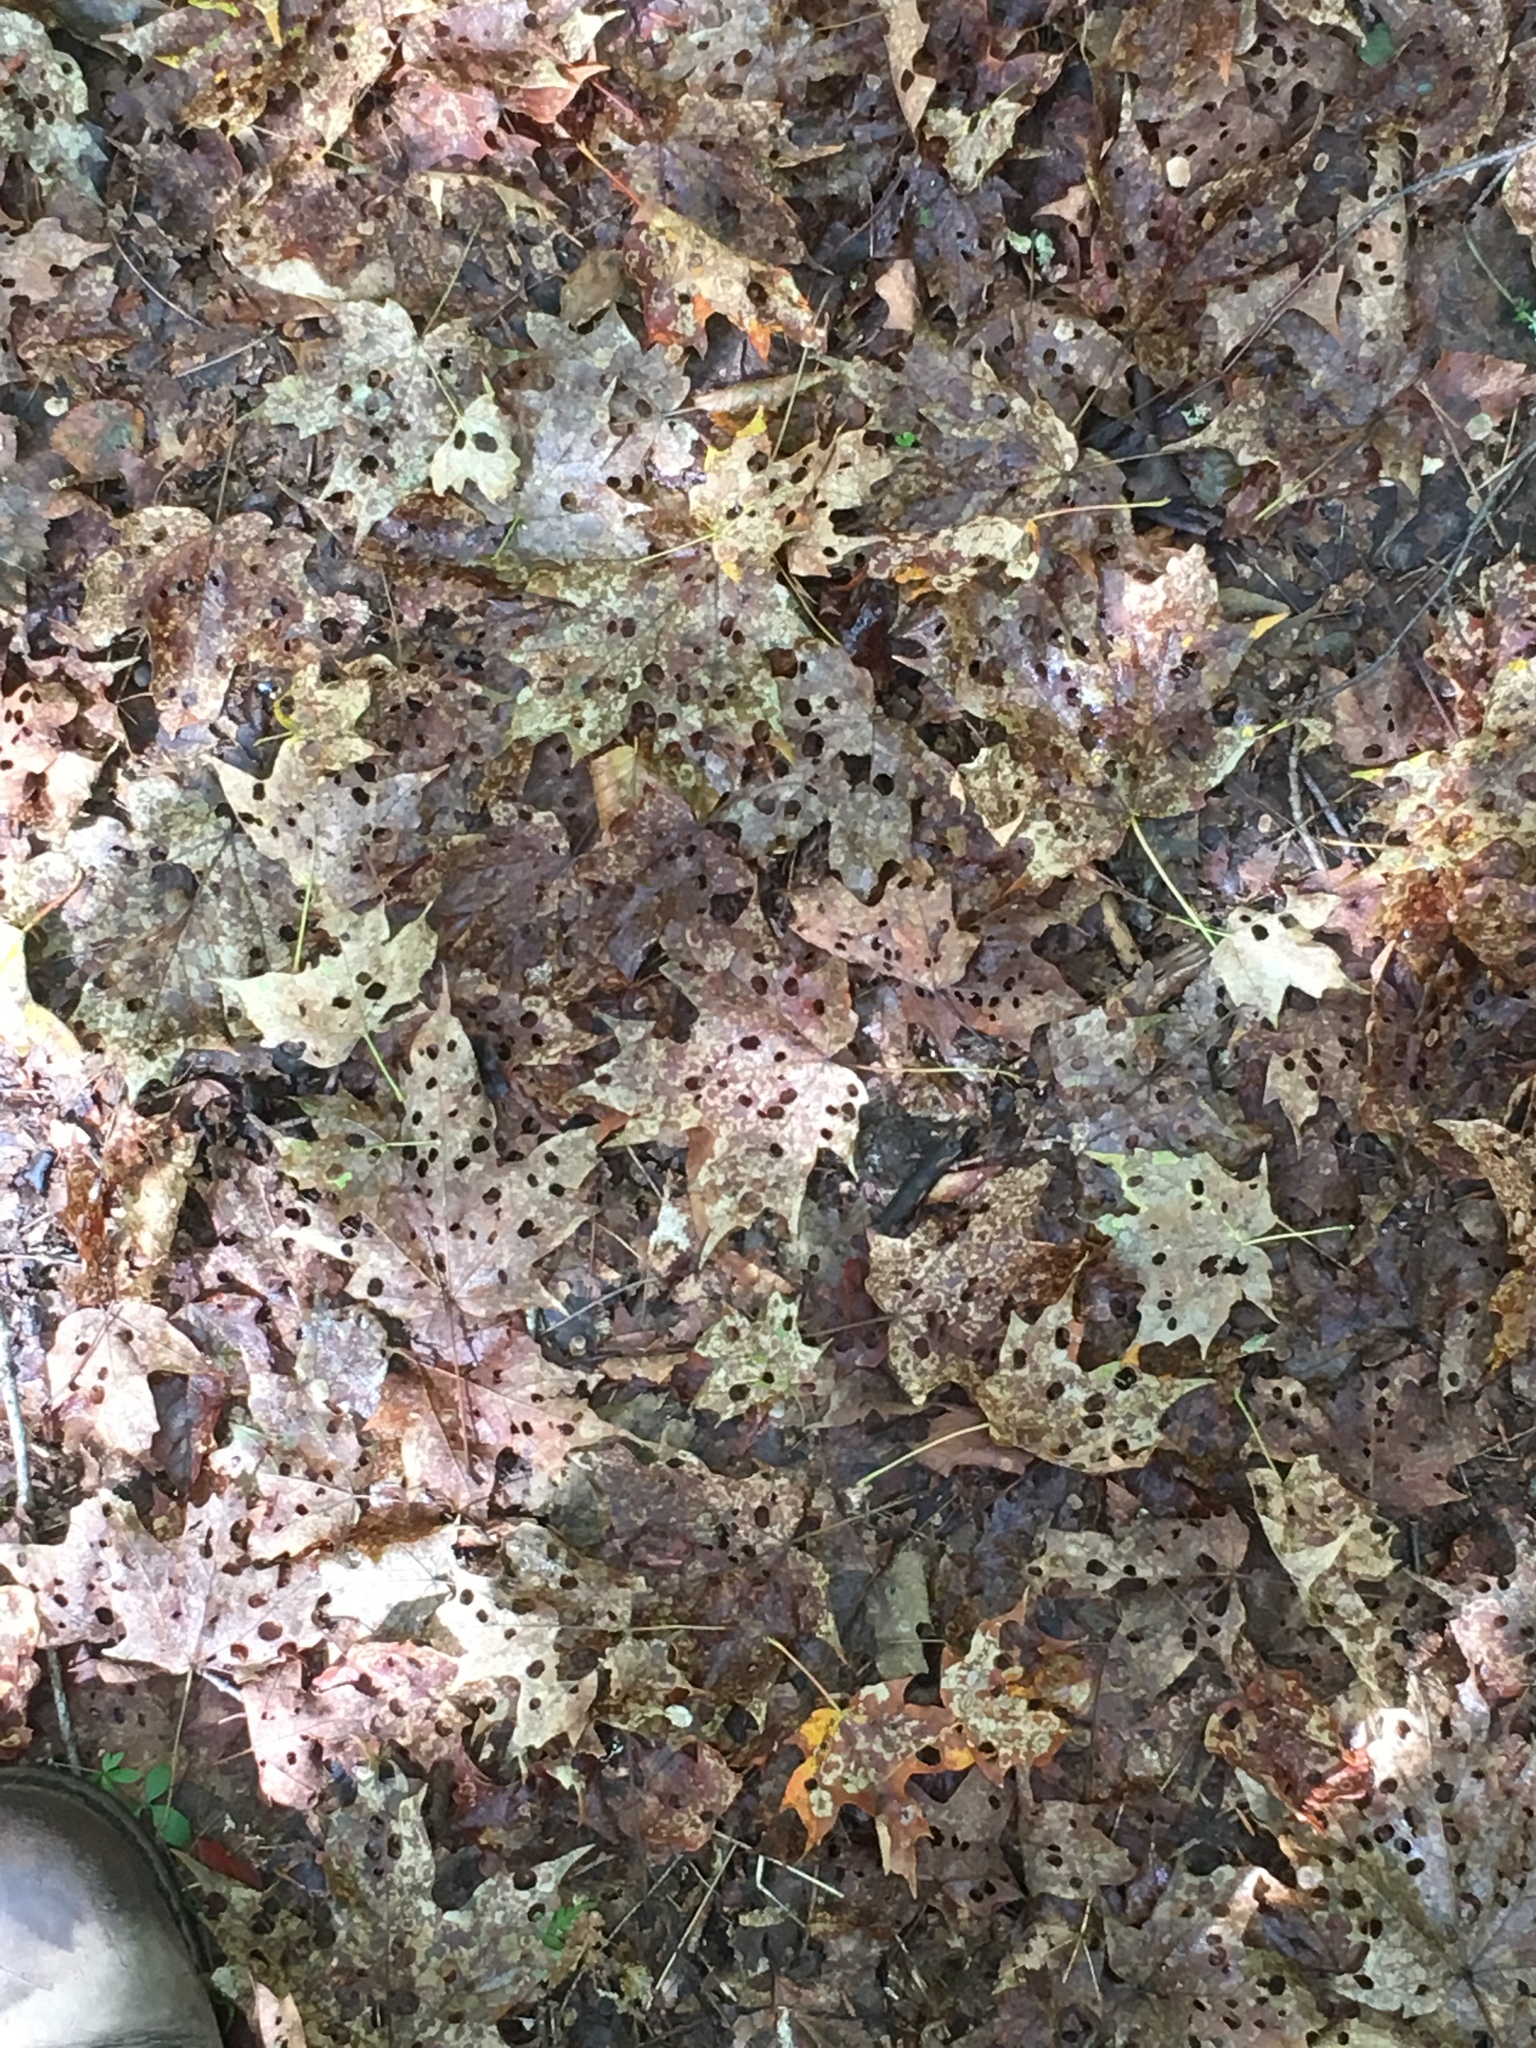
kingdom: Animalia
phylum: Arthropoda
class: Insecta
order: Lepidoptera
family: Incurvariidae
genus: Paraclemensia
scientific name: Paraclemensia acerifoliella
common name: Maple leafcutter
